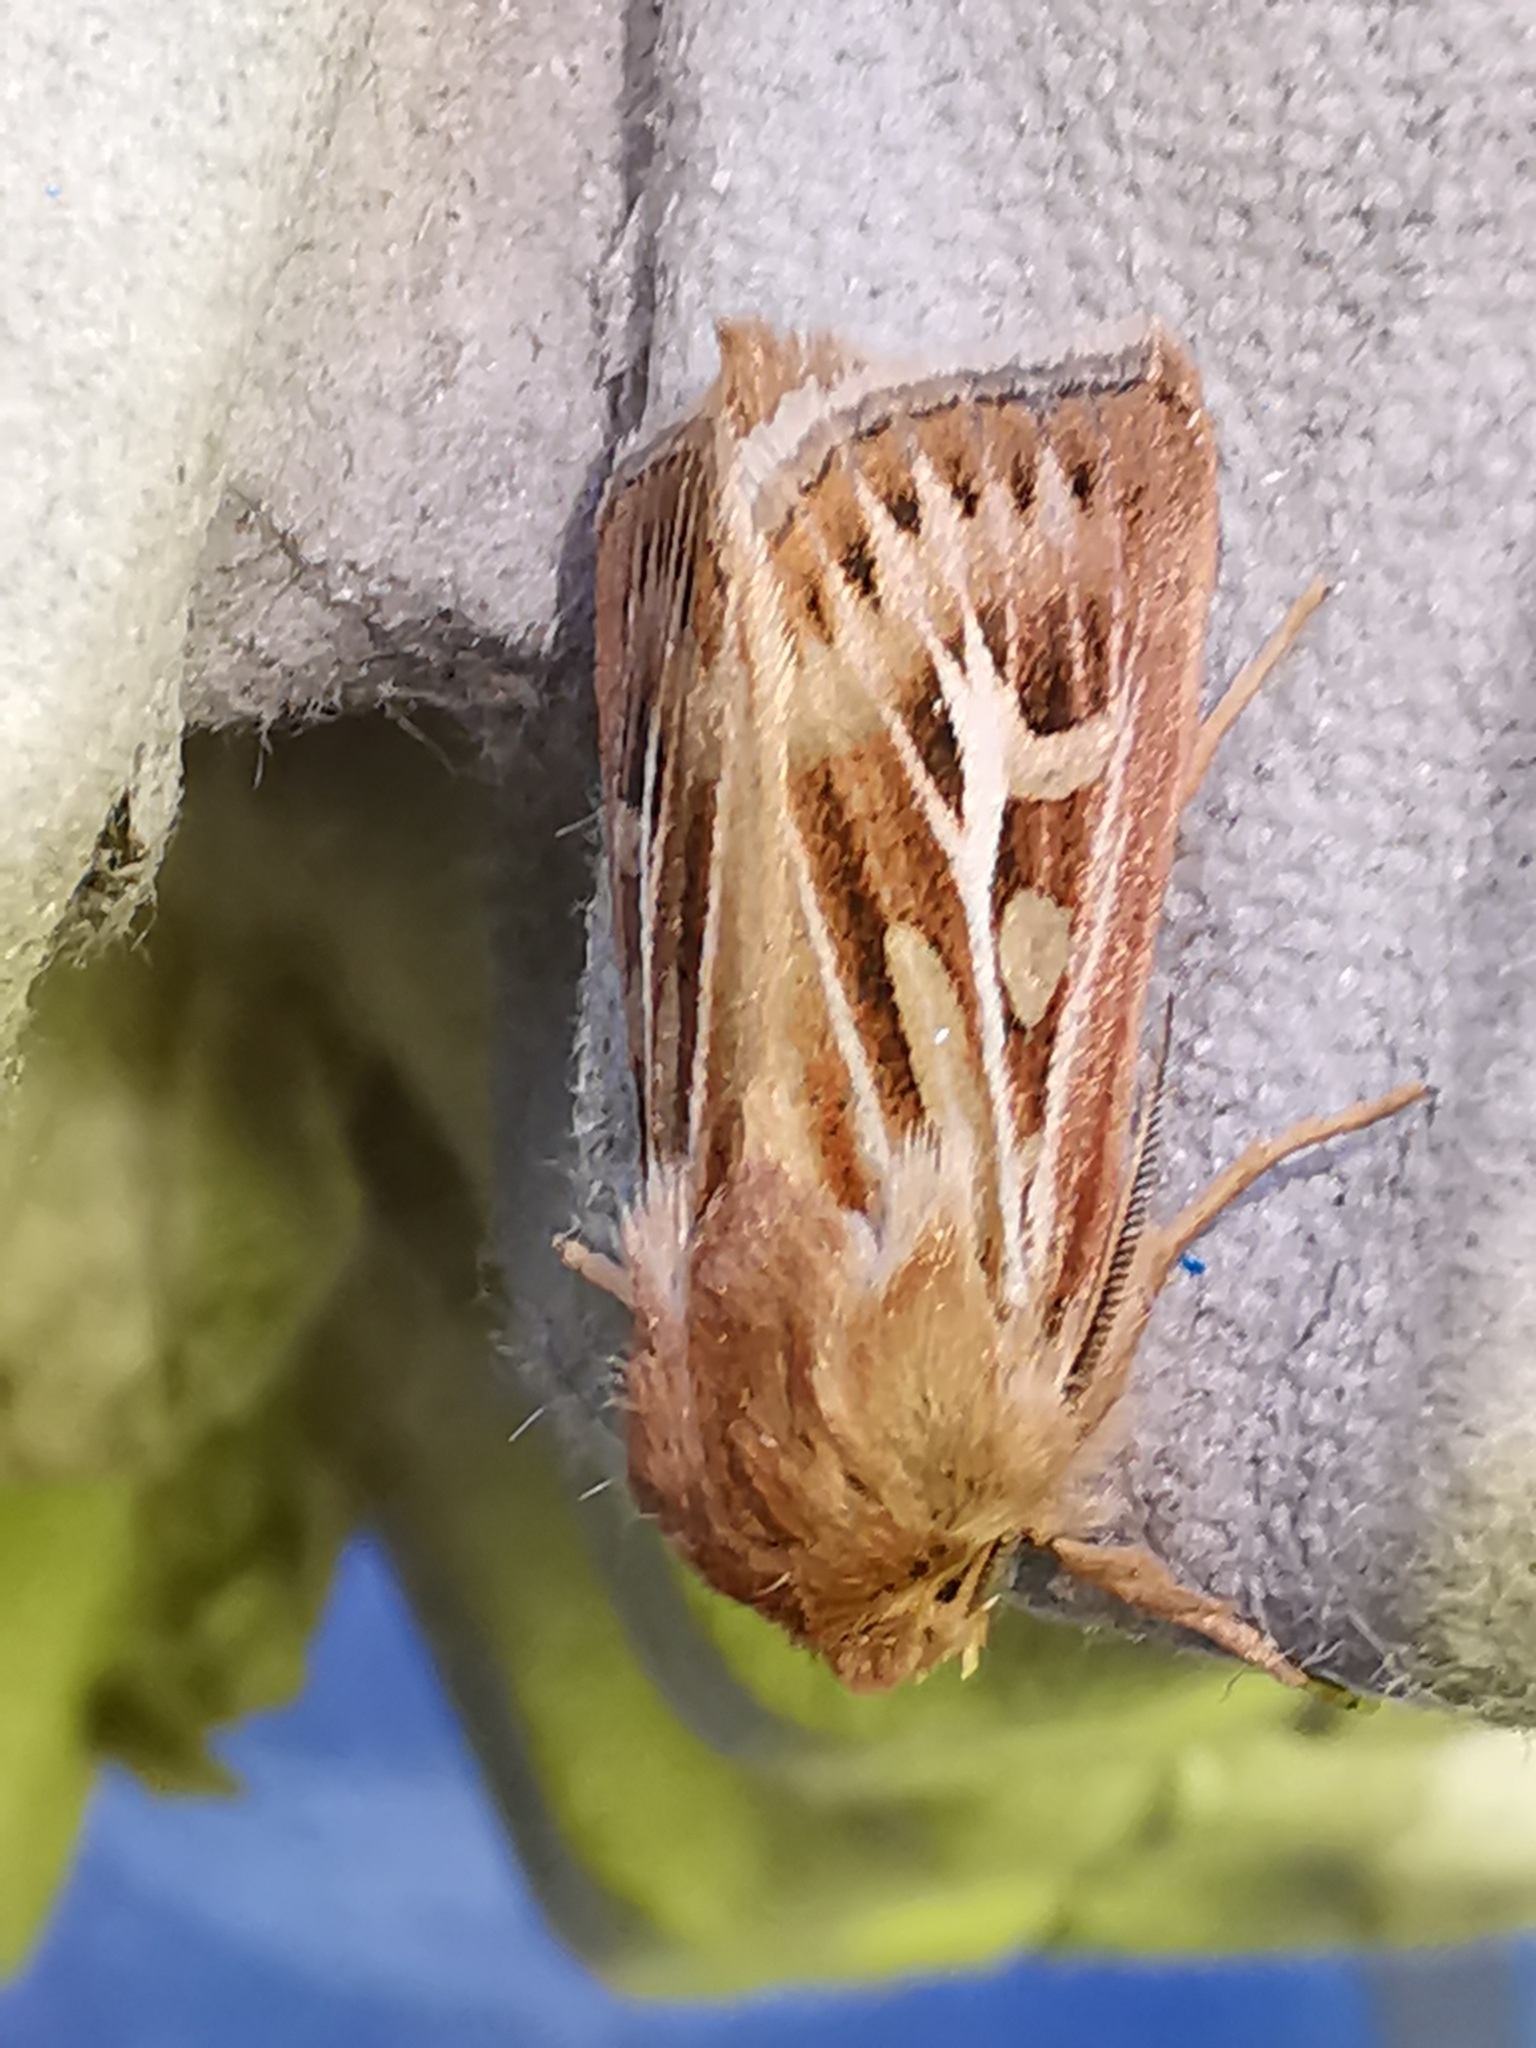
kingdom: Animalia
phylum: Arthropoda
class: Insecta
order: Lepidoptera
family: Noctuidae
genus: Cerapteryx
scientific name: Cerapteryx graminis
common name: Antler moth
